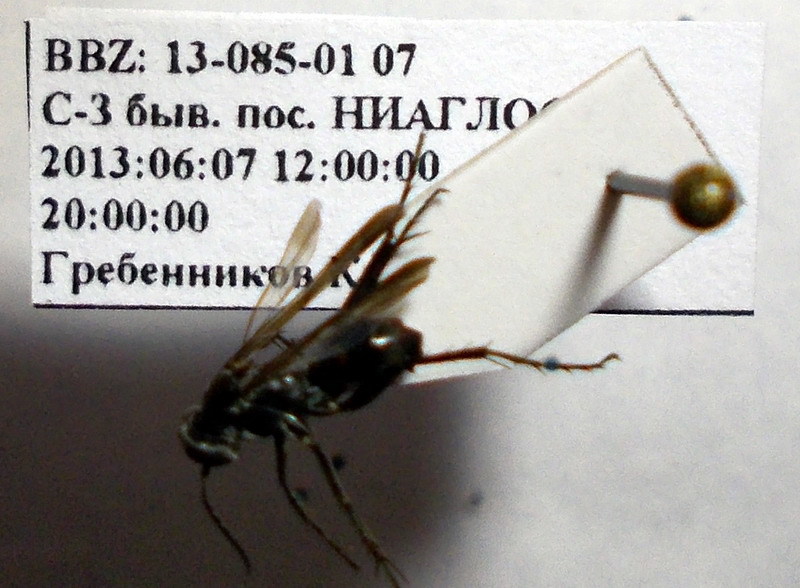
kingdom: Animalia
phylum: Arthropoda
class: Insecta
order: Hymenoptera
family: Pompilidae
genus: Telostegus
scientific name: Telostegus inermis
